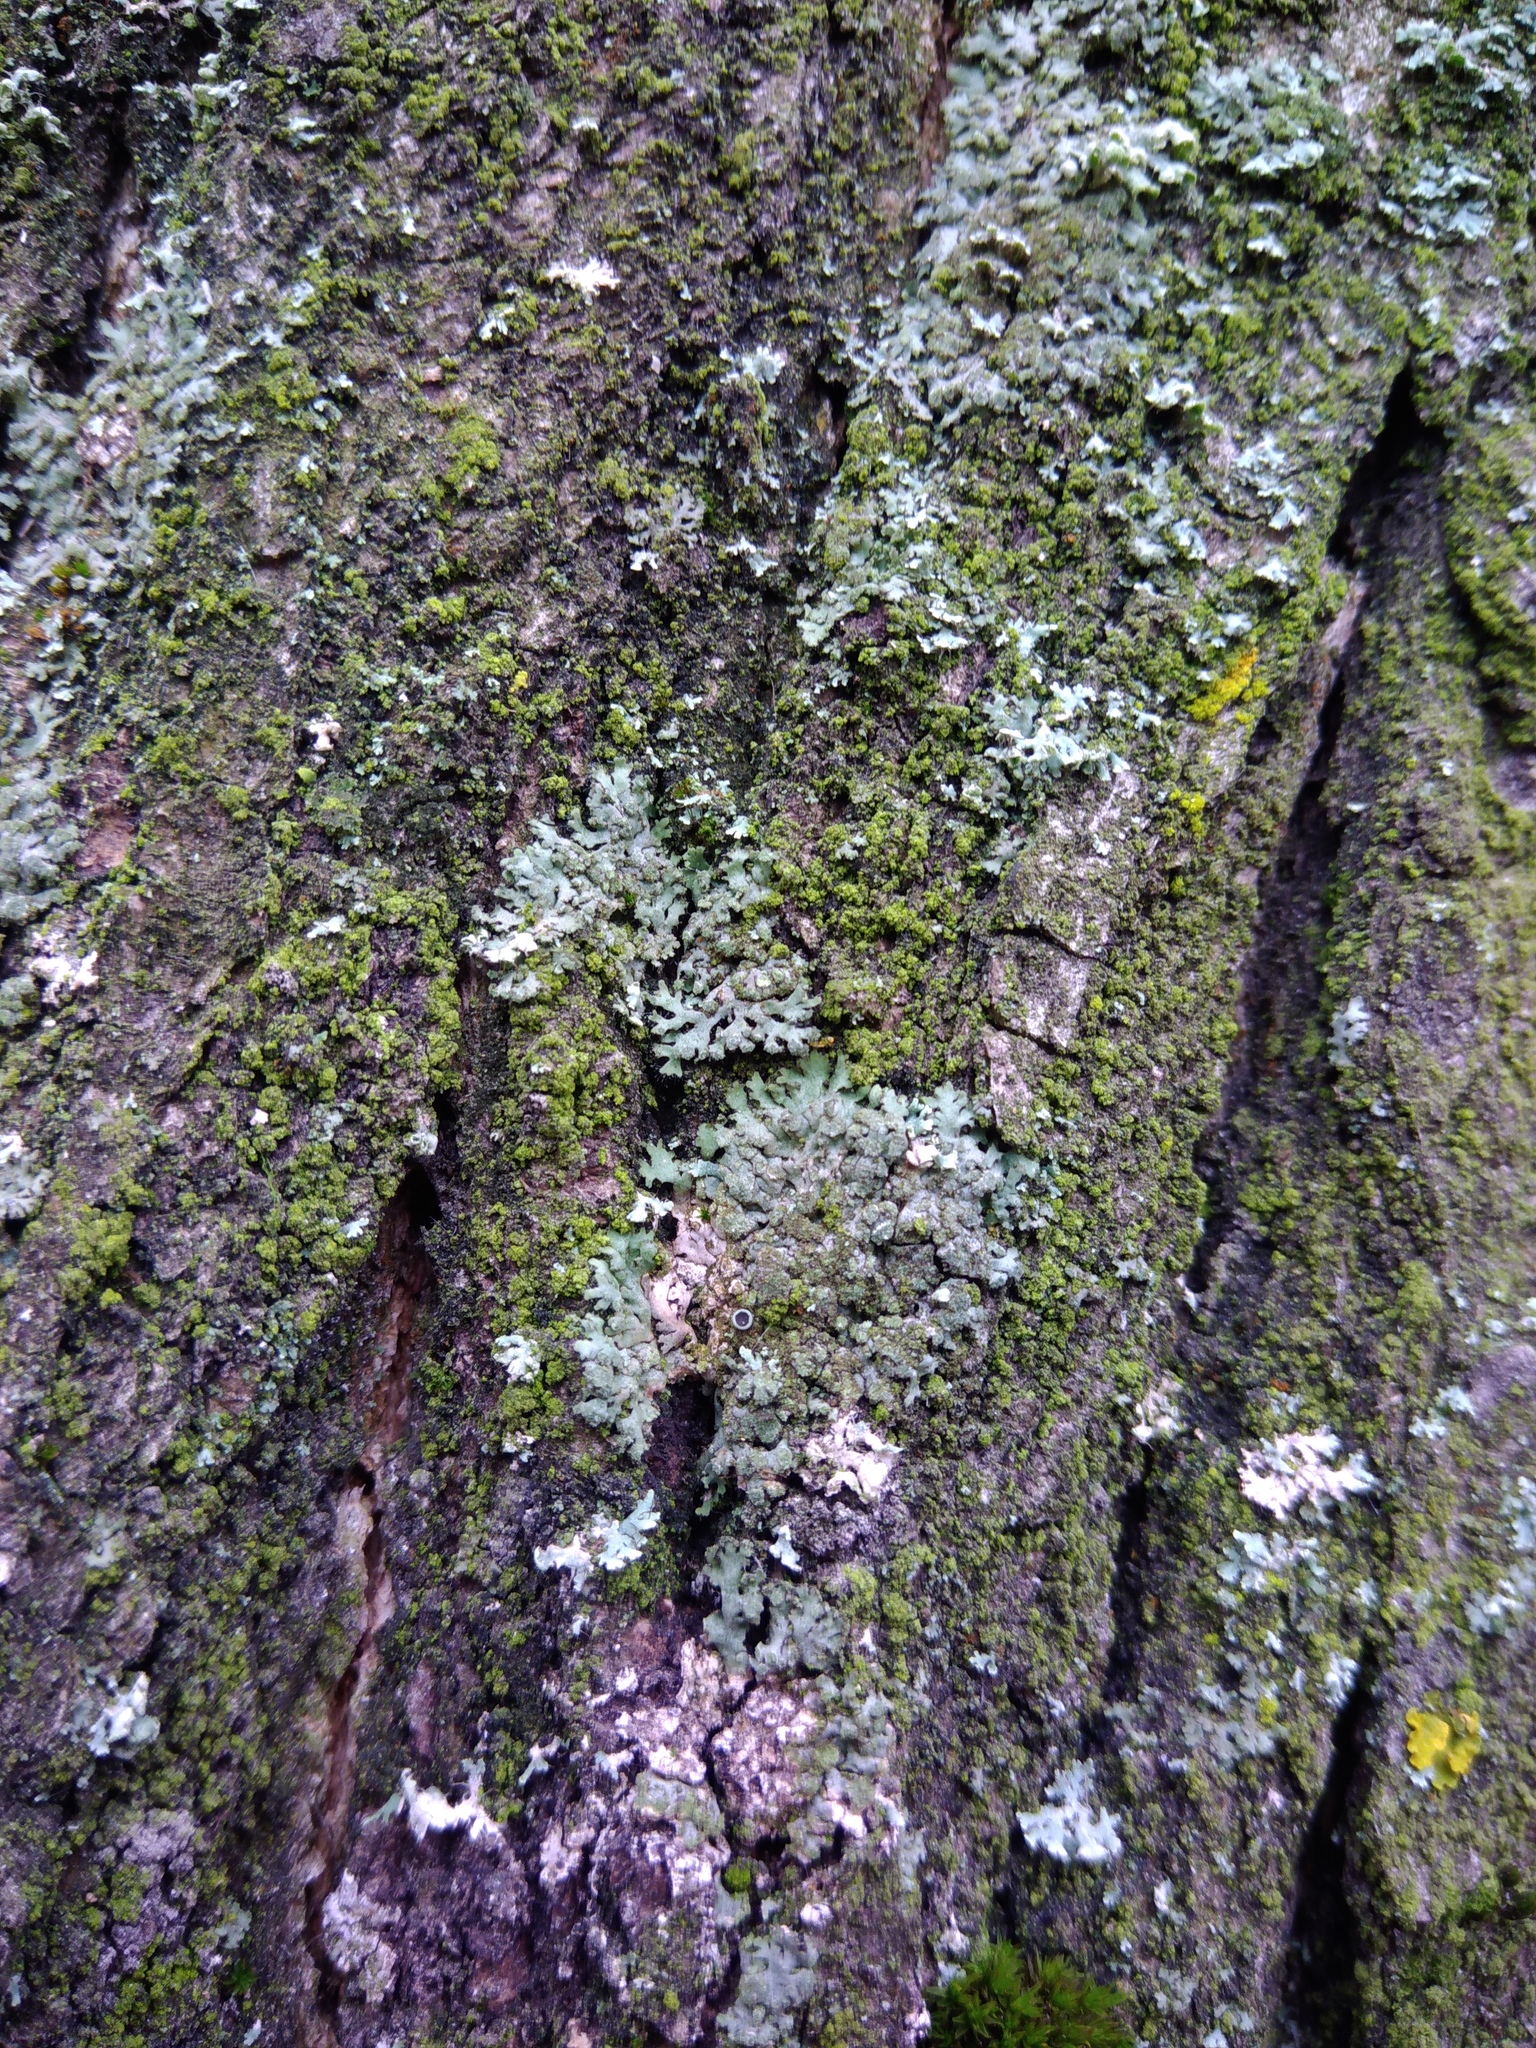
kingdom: Fungi
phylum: Ascomycota
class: Lecanoromycetes
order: Caliciales
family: Physciaceae
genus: Phaeophyscia
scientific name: Phaeophyscia orbicularis
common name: Mealy shadow lichen
